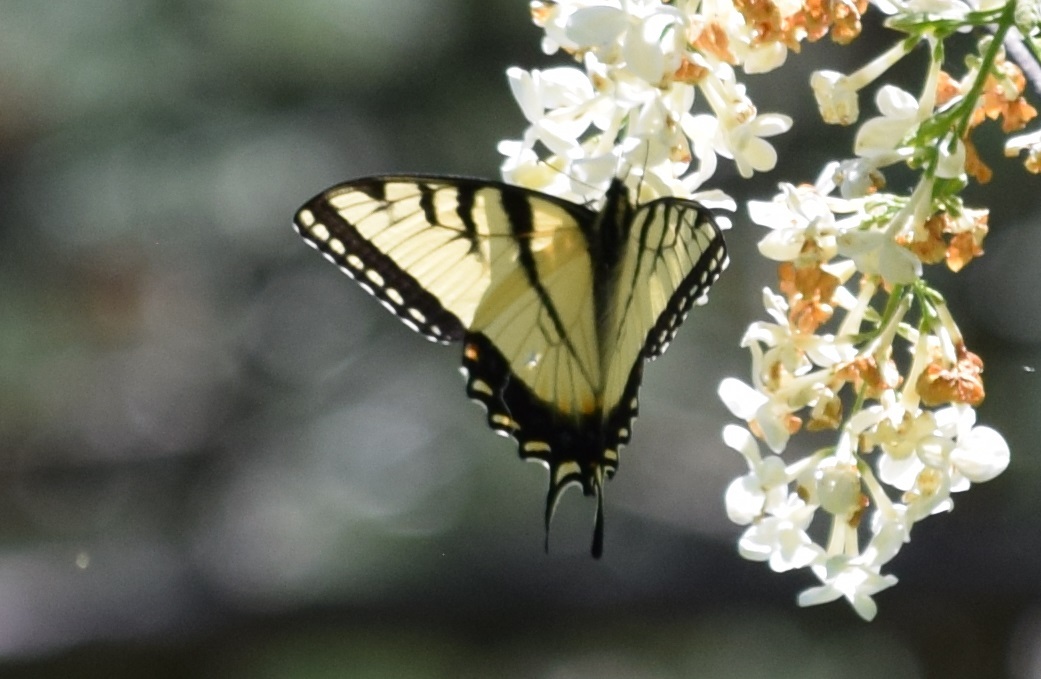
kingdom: Animalia
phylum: Arthropoda
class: Insecta
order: Lepidoptera
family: Papilionidae
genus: Papilio
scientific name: Papilio glaucus
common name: Tiger swallowtail
